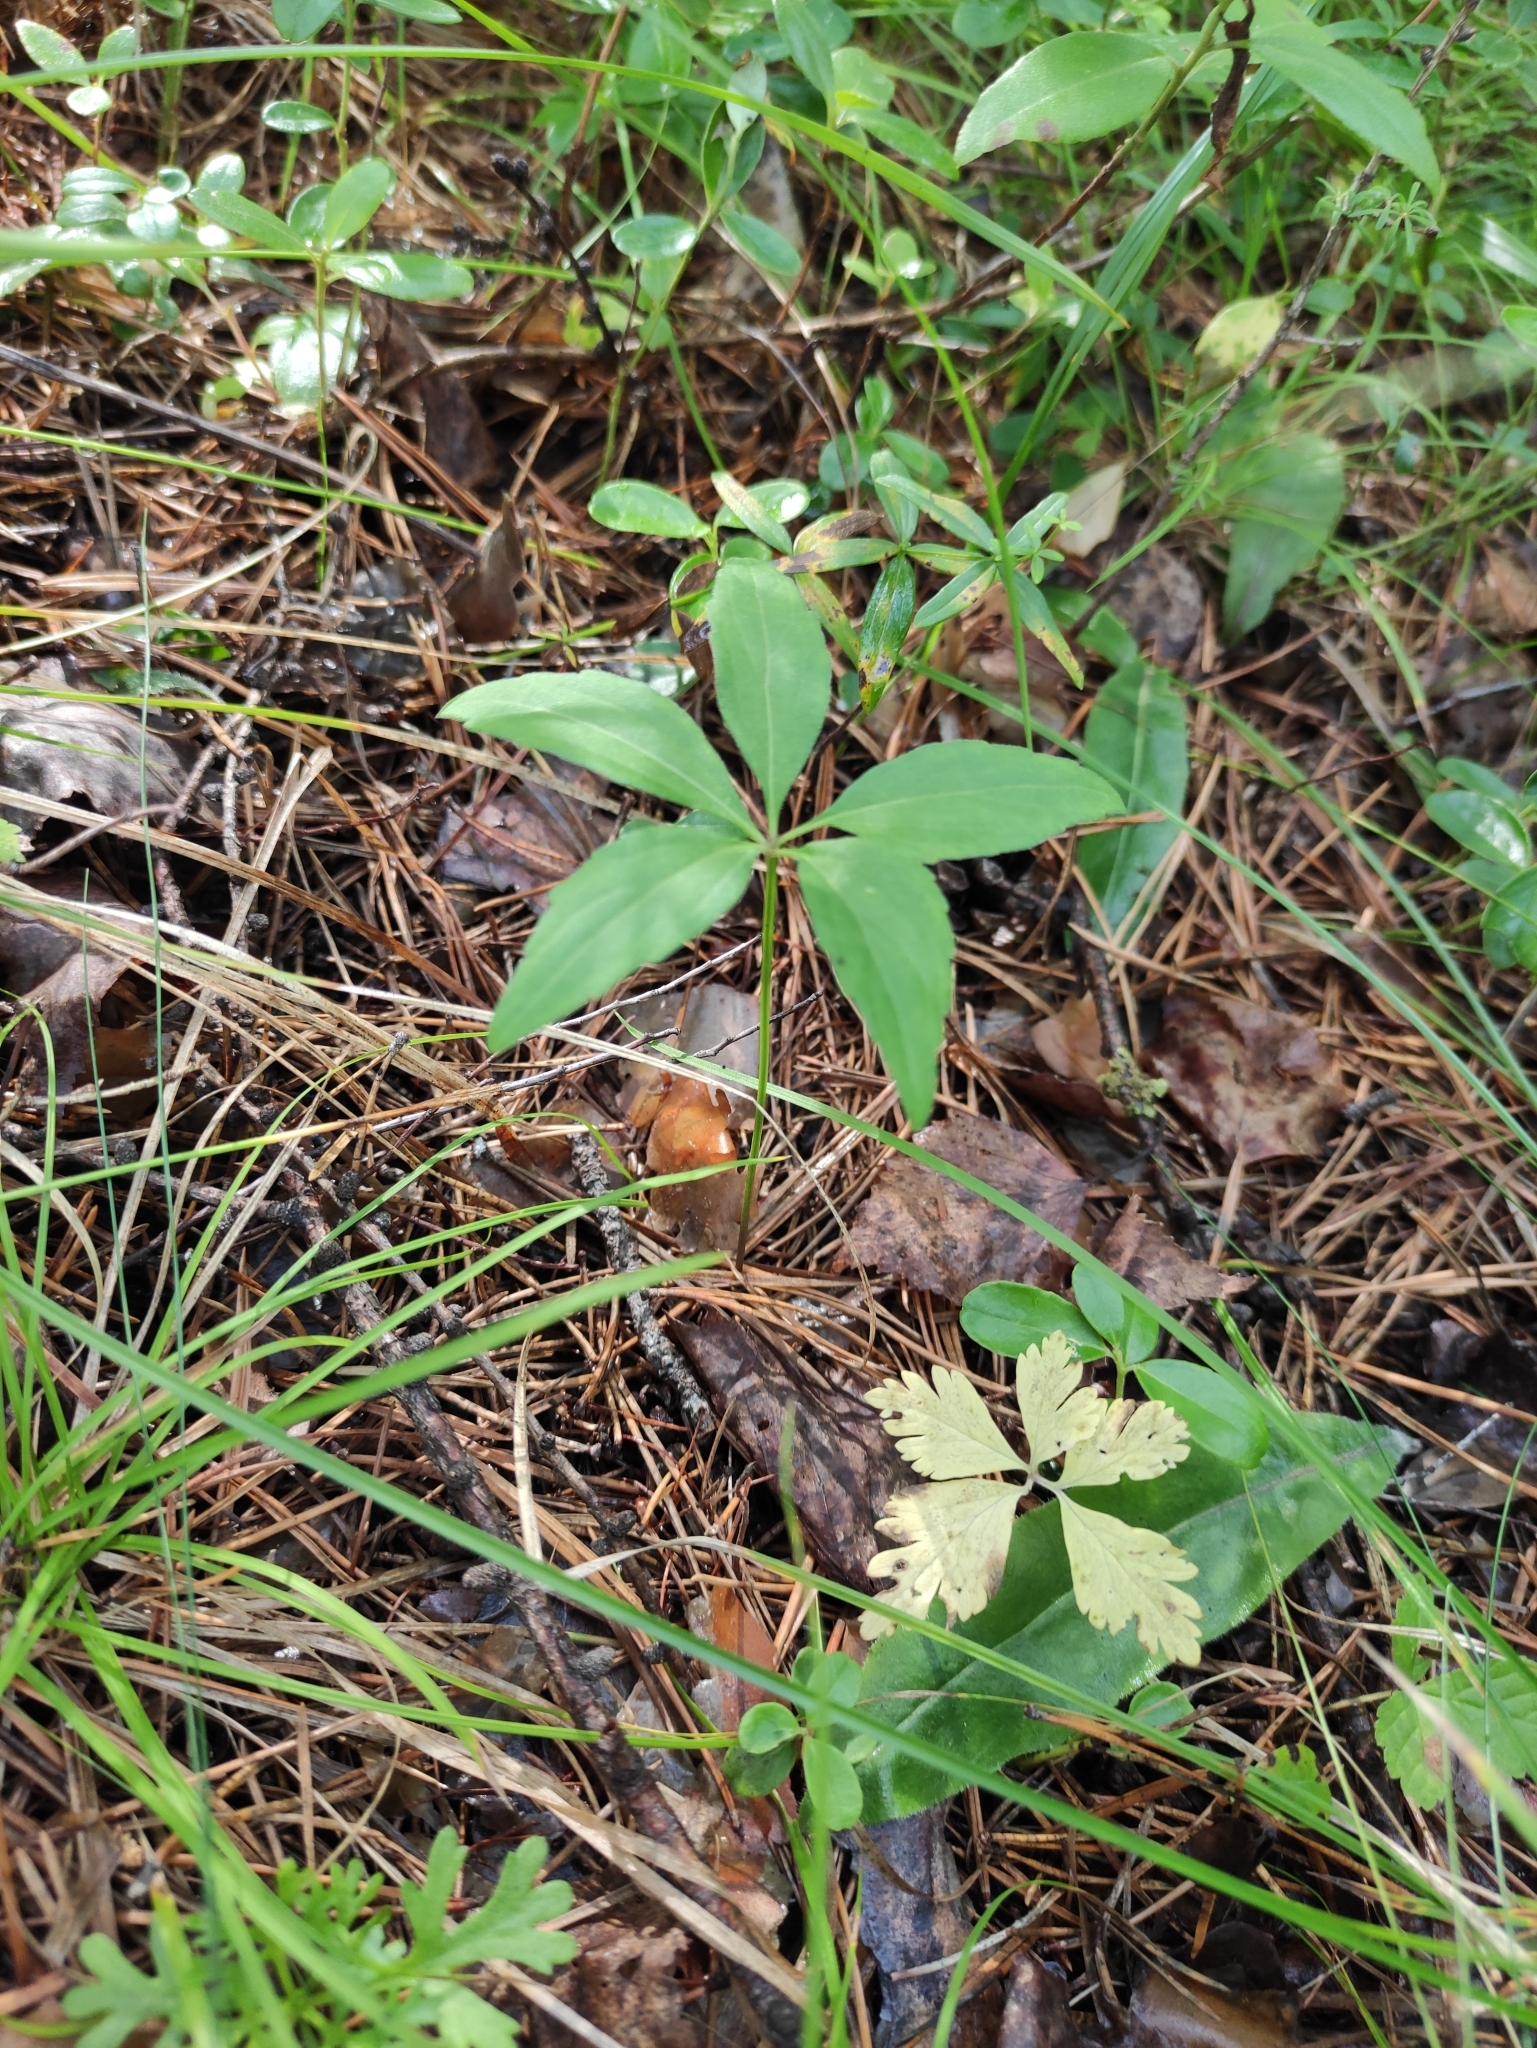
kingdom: Plantae
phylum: Tracheophyta
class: Magnoliopsida
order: Malpighiales
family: Violaceae
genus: Viola
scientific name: Viola dactyloides
